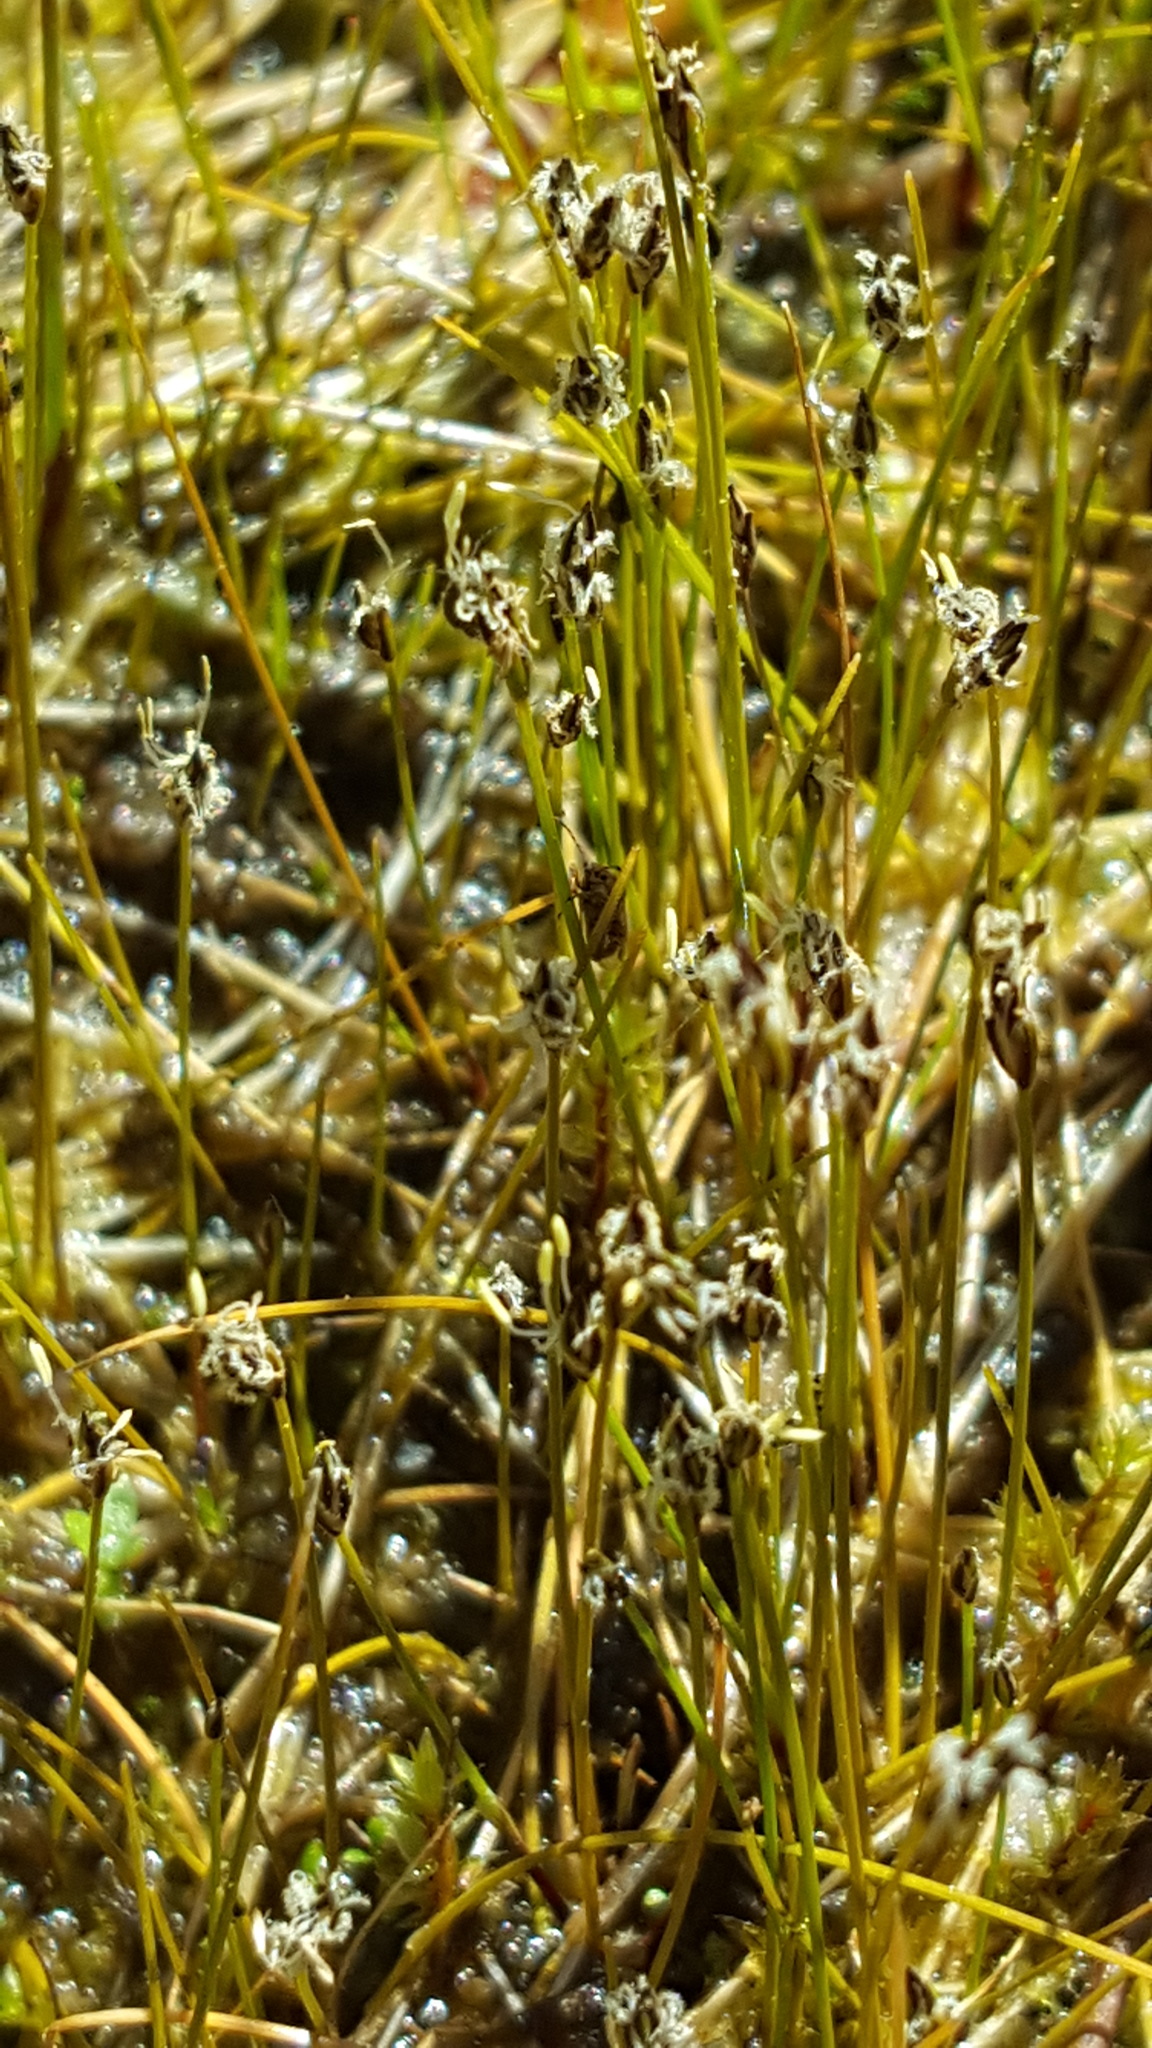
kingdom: Plantae
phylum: Tracheophyta
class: Liliopsida
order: Poales
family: Cyperaceae
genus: Eleocharis
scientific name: Eleocharis acicularis
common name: Needle spike-rush
